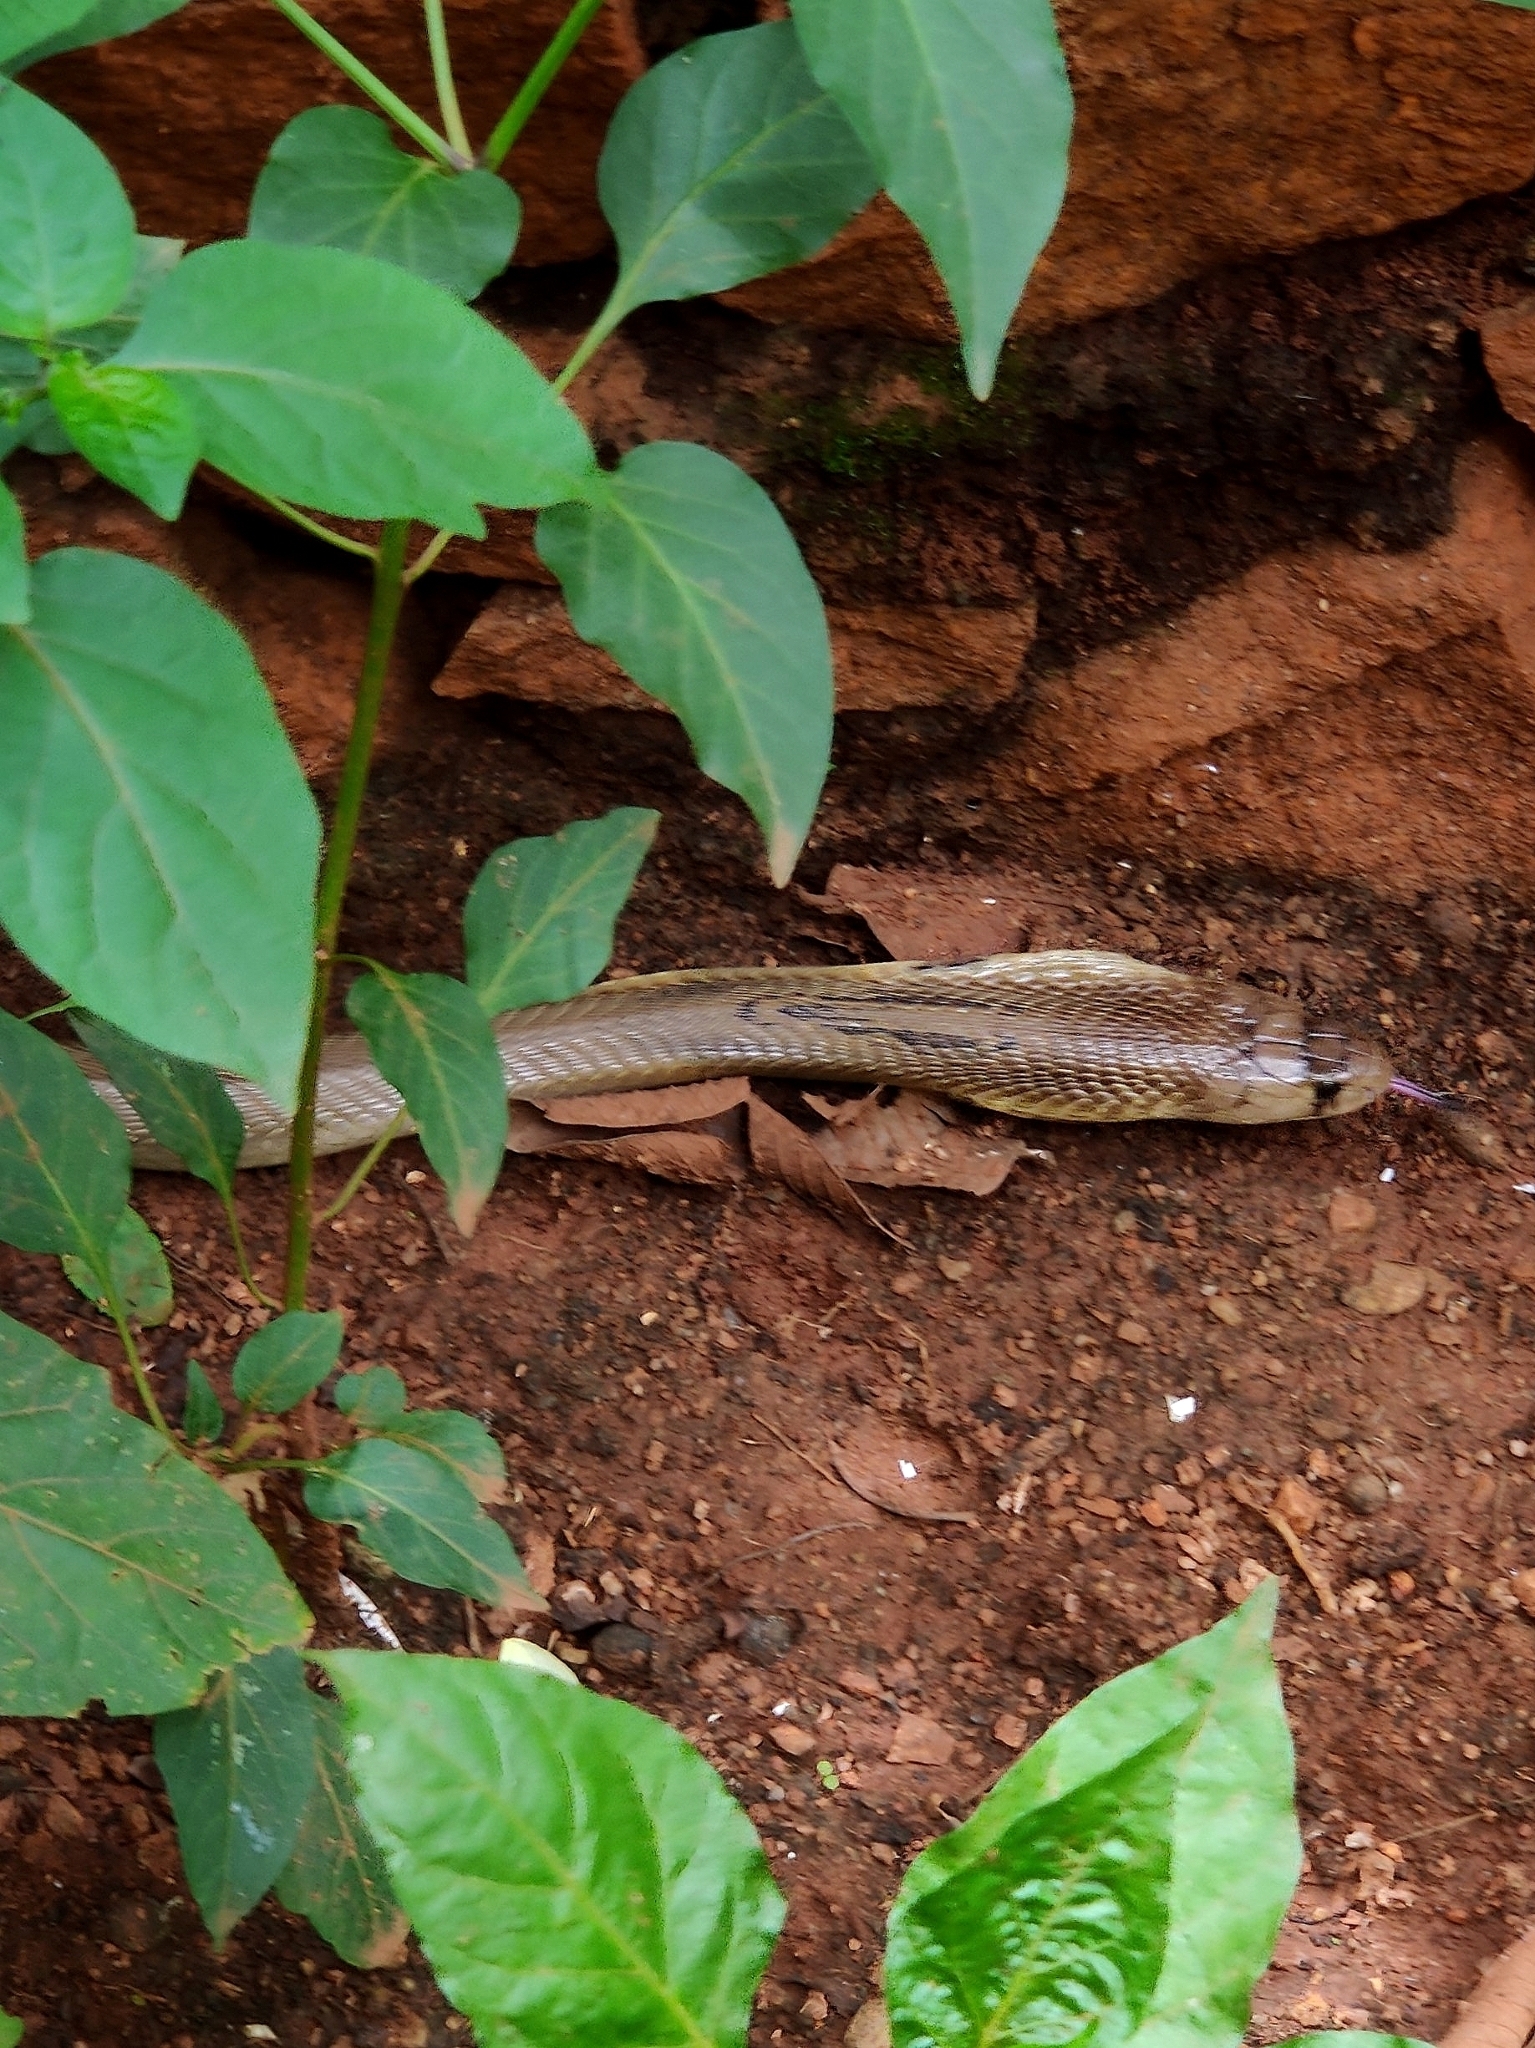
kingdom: Animalia
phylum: Chordata
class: Squamata
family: Elapidae
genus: Naja
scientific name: Naja naja
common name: Indian cobra
